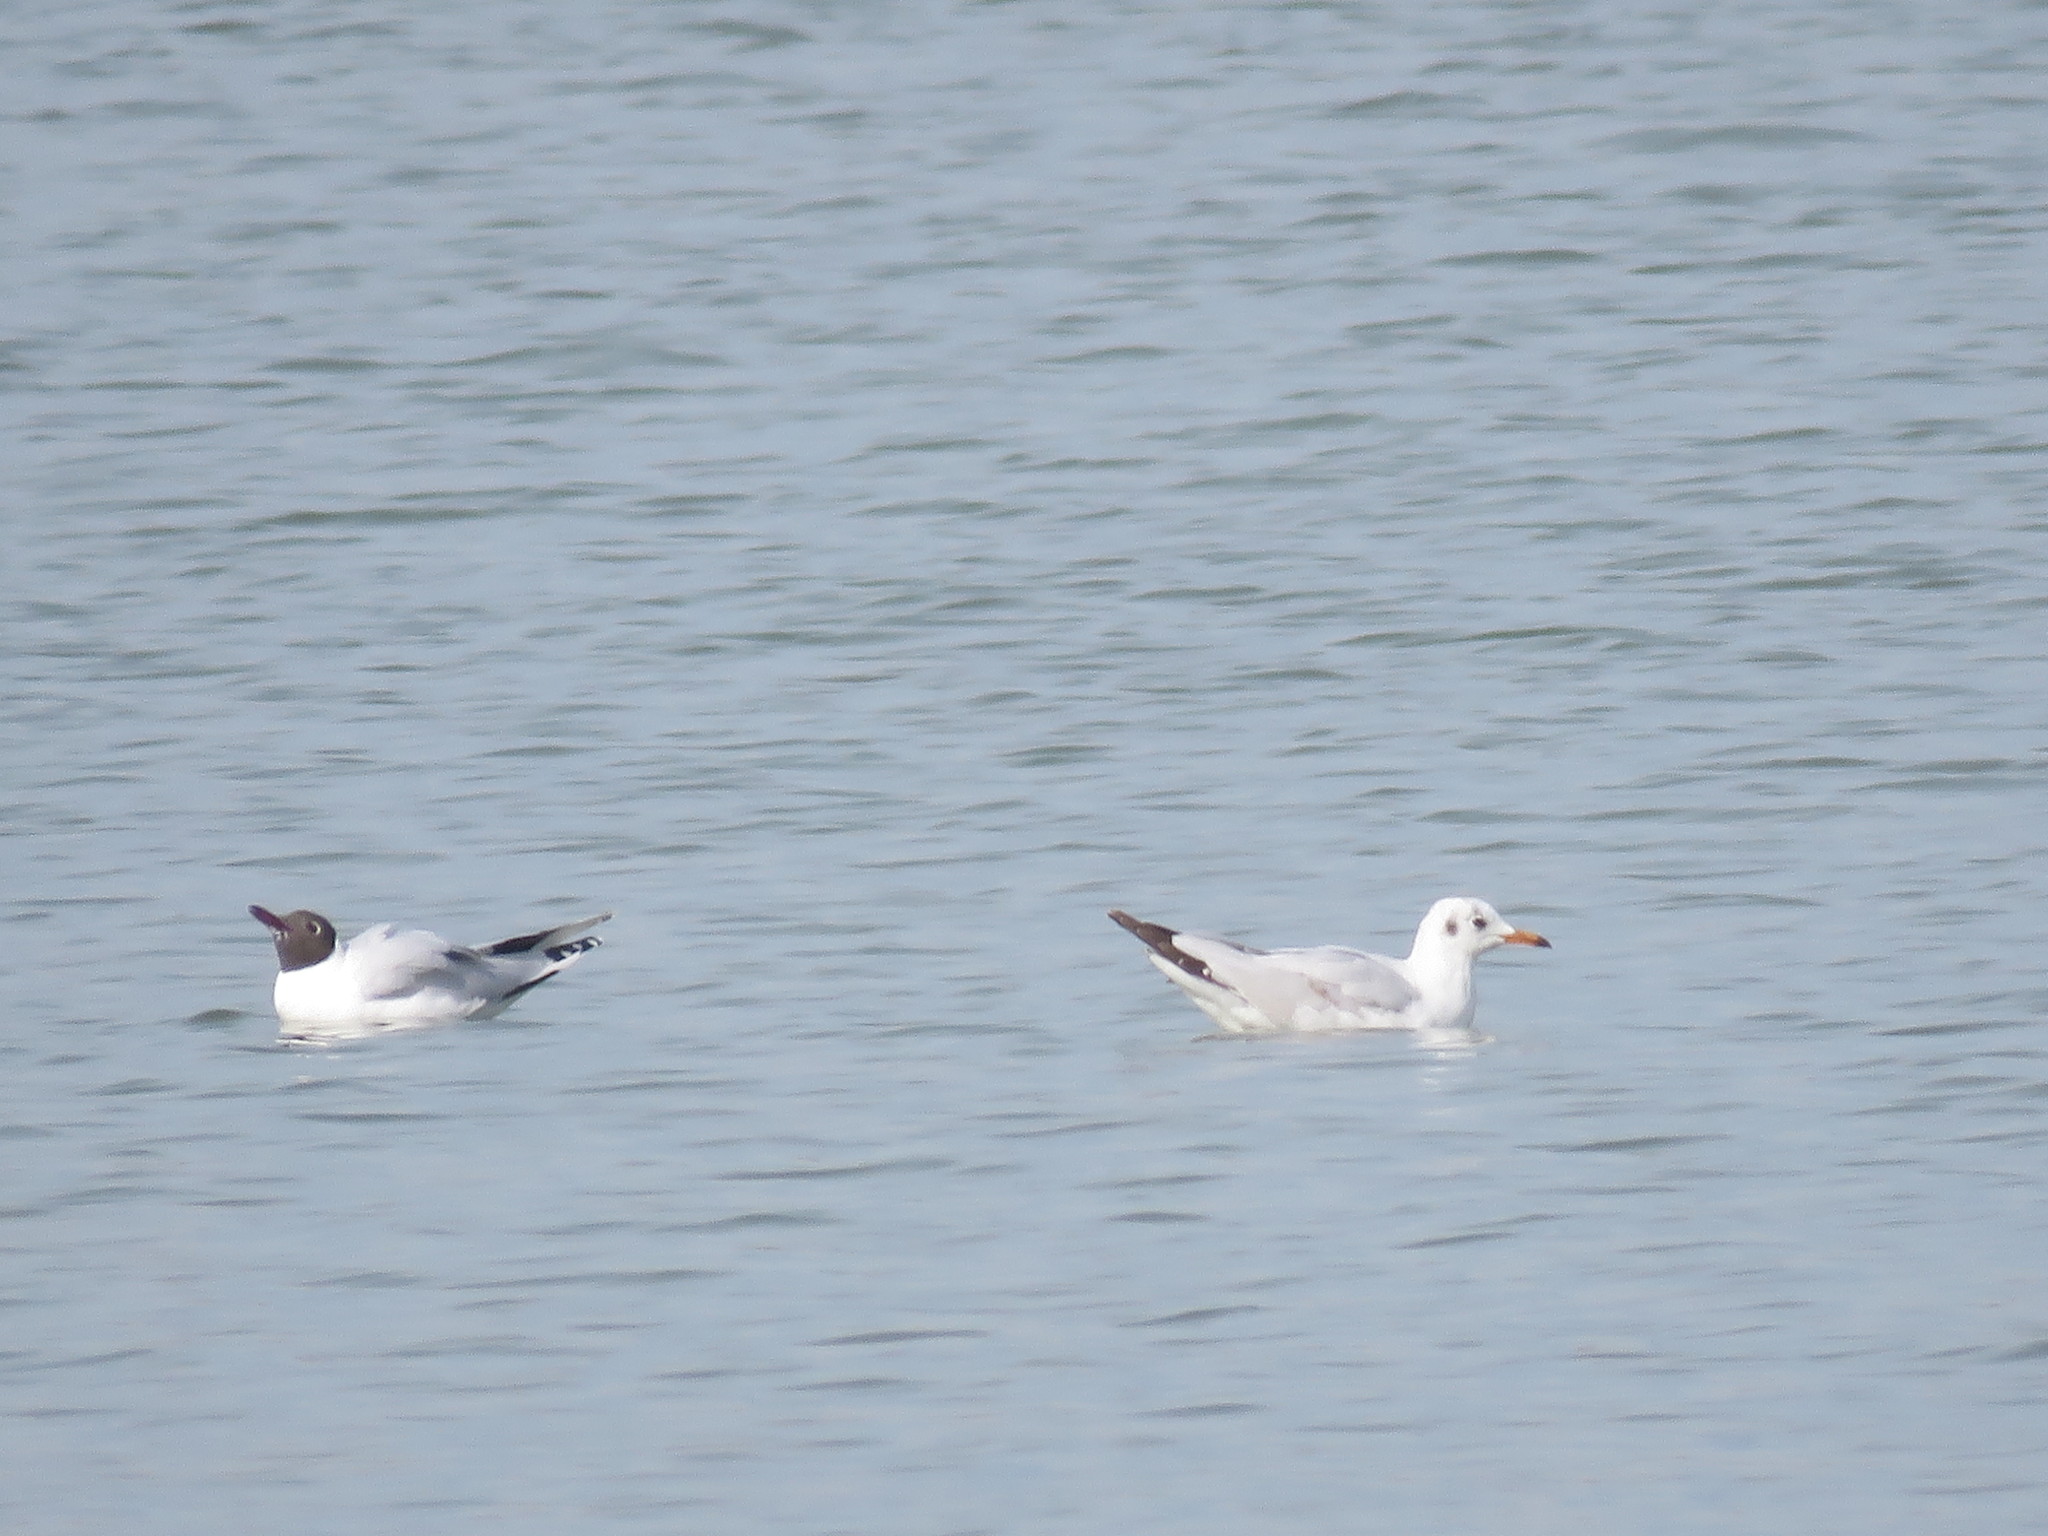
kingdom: Animalia
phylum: Chordata
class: Aves
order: Charadriiformes
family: Laridae
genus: Chroicocephalus
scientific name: Chroicocephalus maculipennis
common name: Brown-hooded gull
